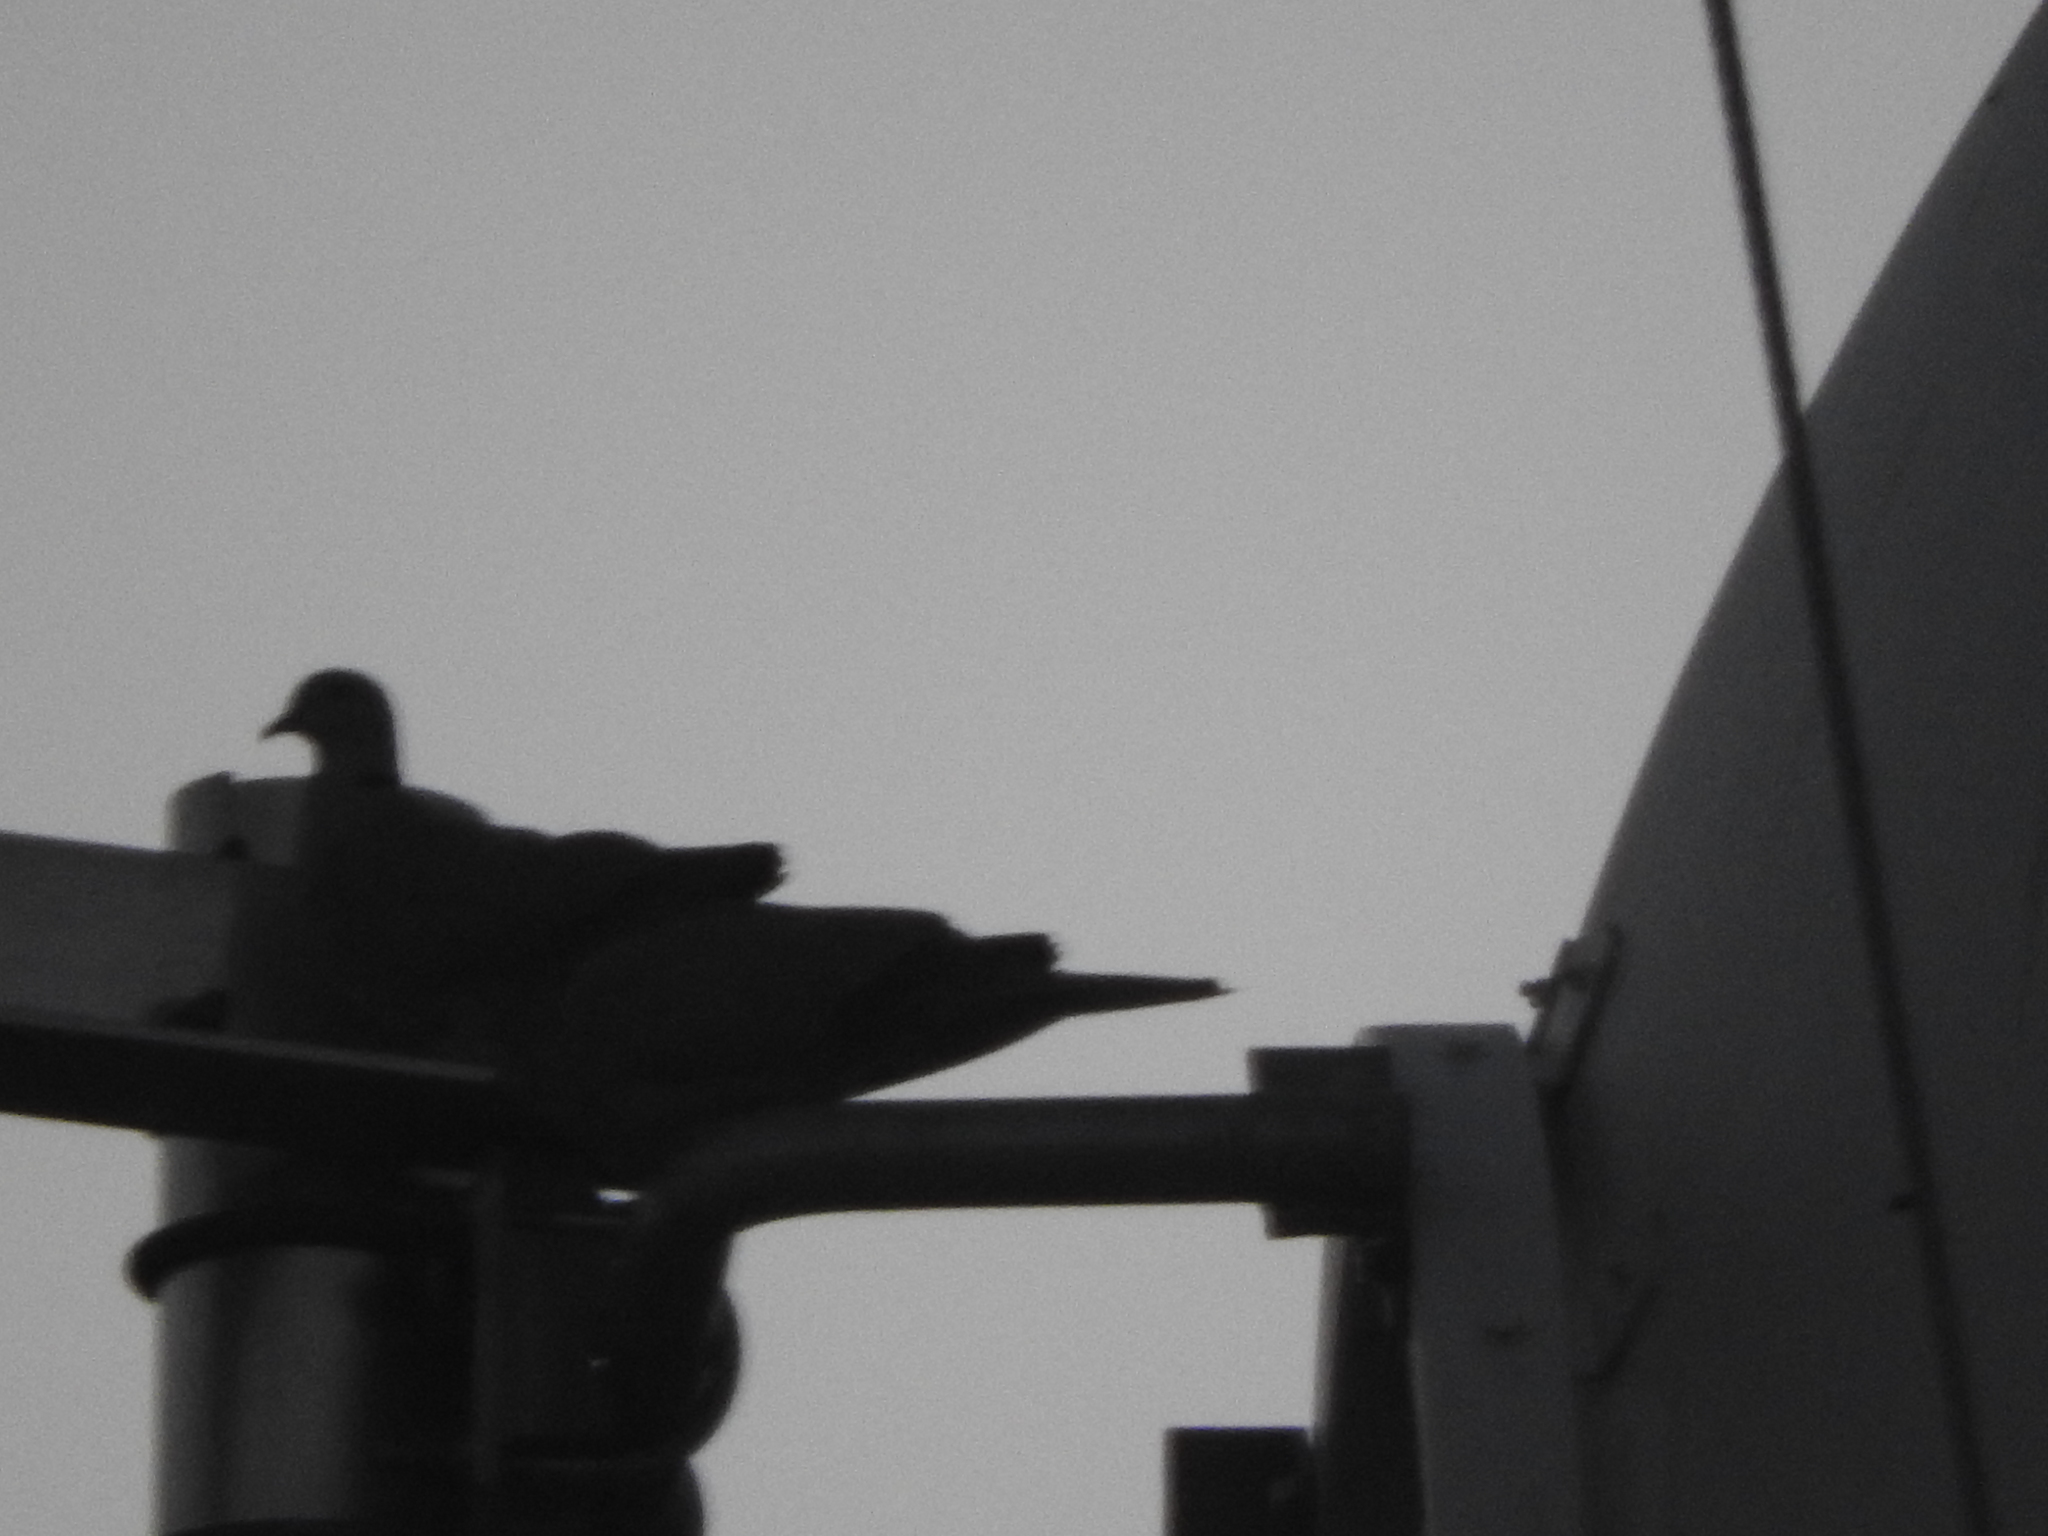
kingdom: Animalia
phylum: Chordata
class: Aves
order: Columbiformes
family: Columbidae
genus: Streptopelia
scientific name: Streptopelia decaocto
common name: Eurasian collared dove
